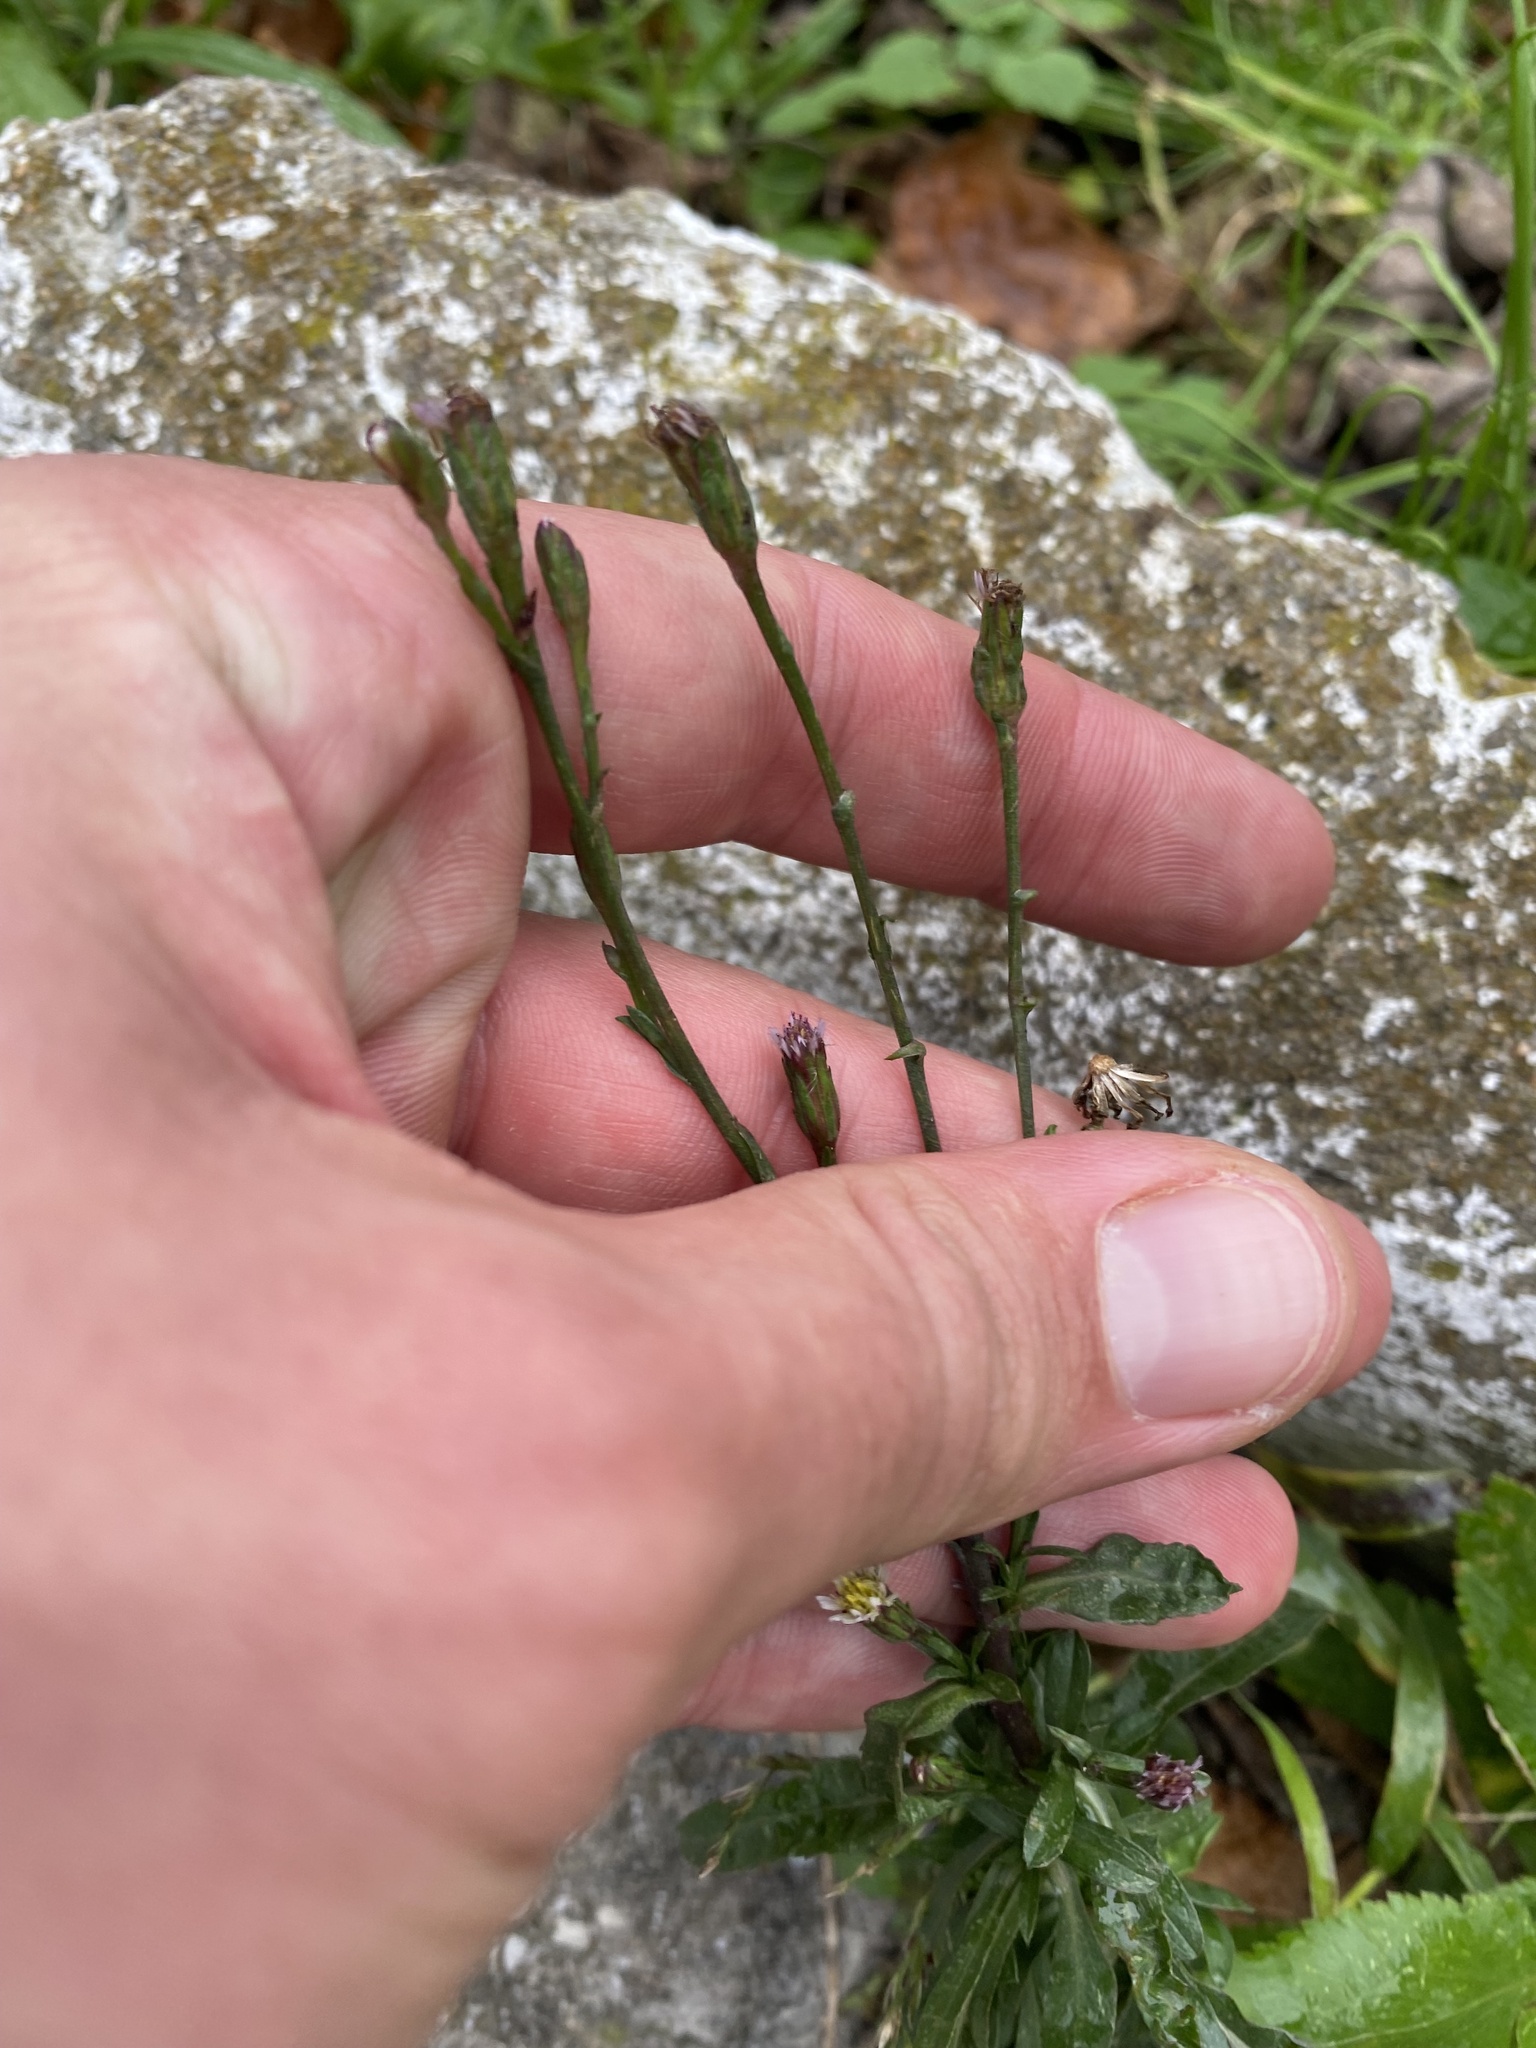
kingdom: Plantae
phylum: Tracheophyta
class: Magnoliopsida
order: Asterales
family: Asteraceae
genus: Symphyotrichum
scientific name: Symphyotrichum subulatum
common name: Annual saltmarsh aster
